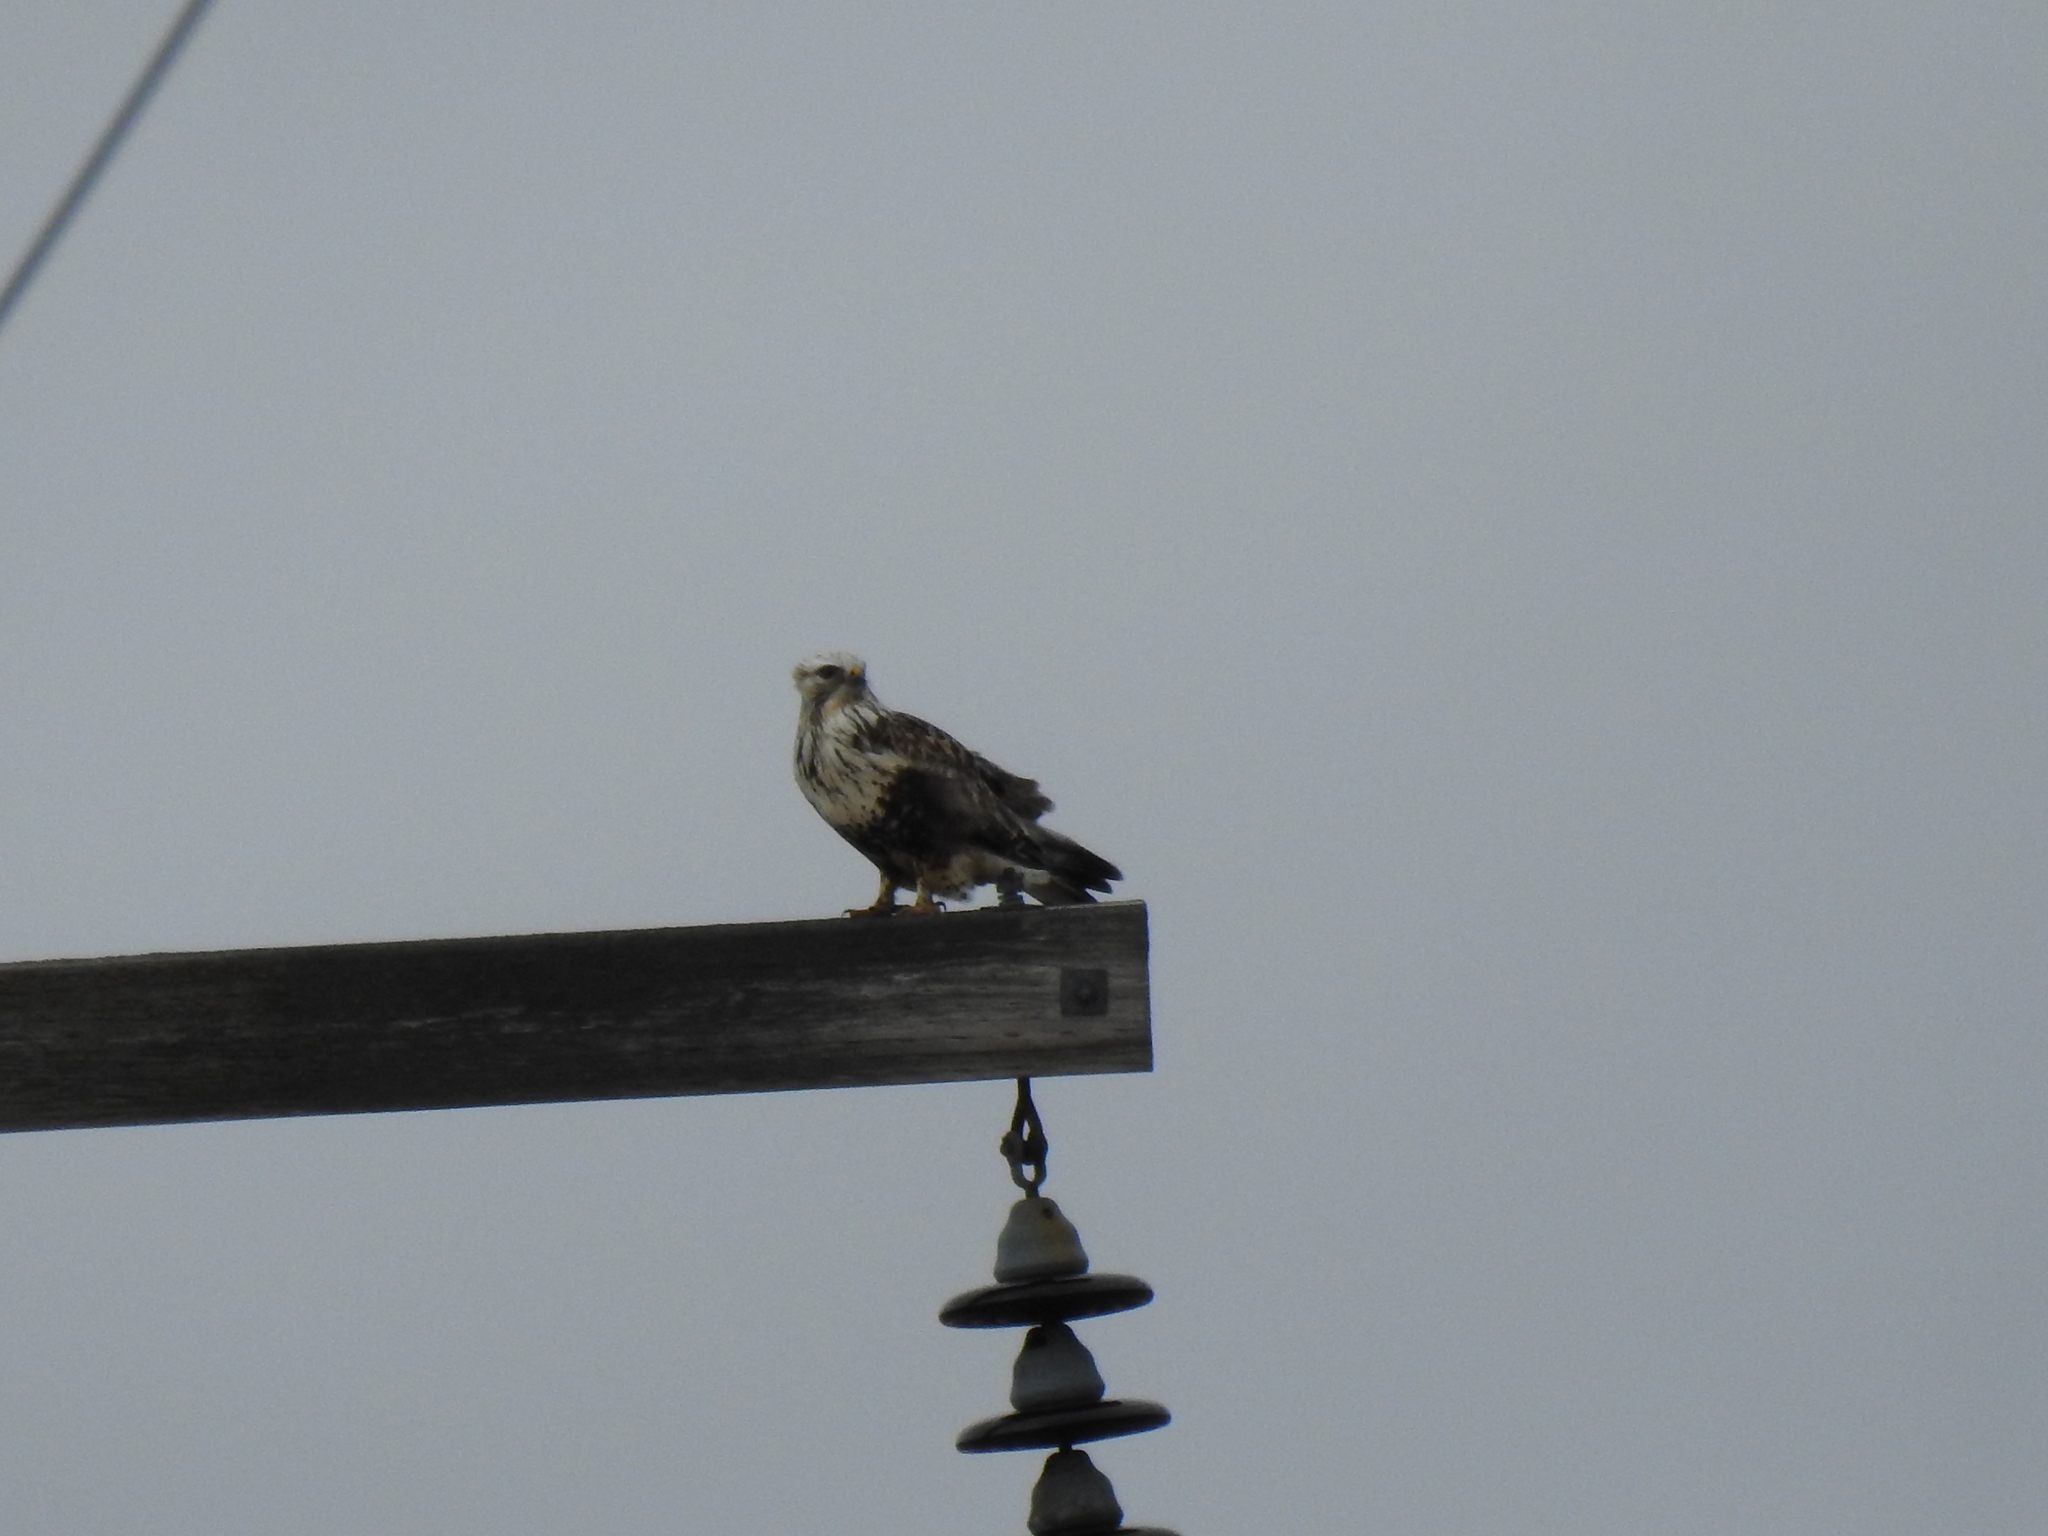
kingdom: Animalia
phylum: Chordata
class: Aves
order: Accipitriformes
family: Accipitridae
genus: Buteo
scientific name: Buteo lagopus
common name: Rough-legged buzzard
